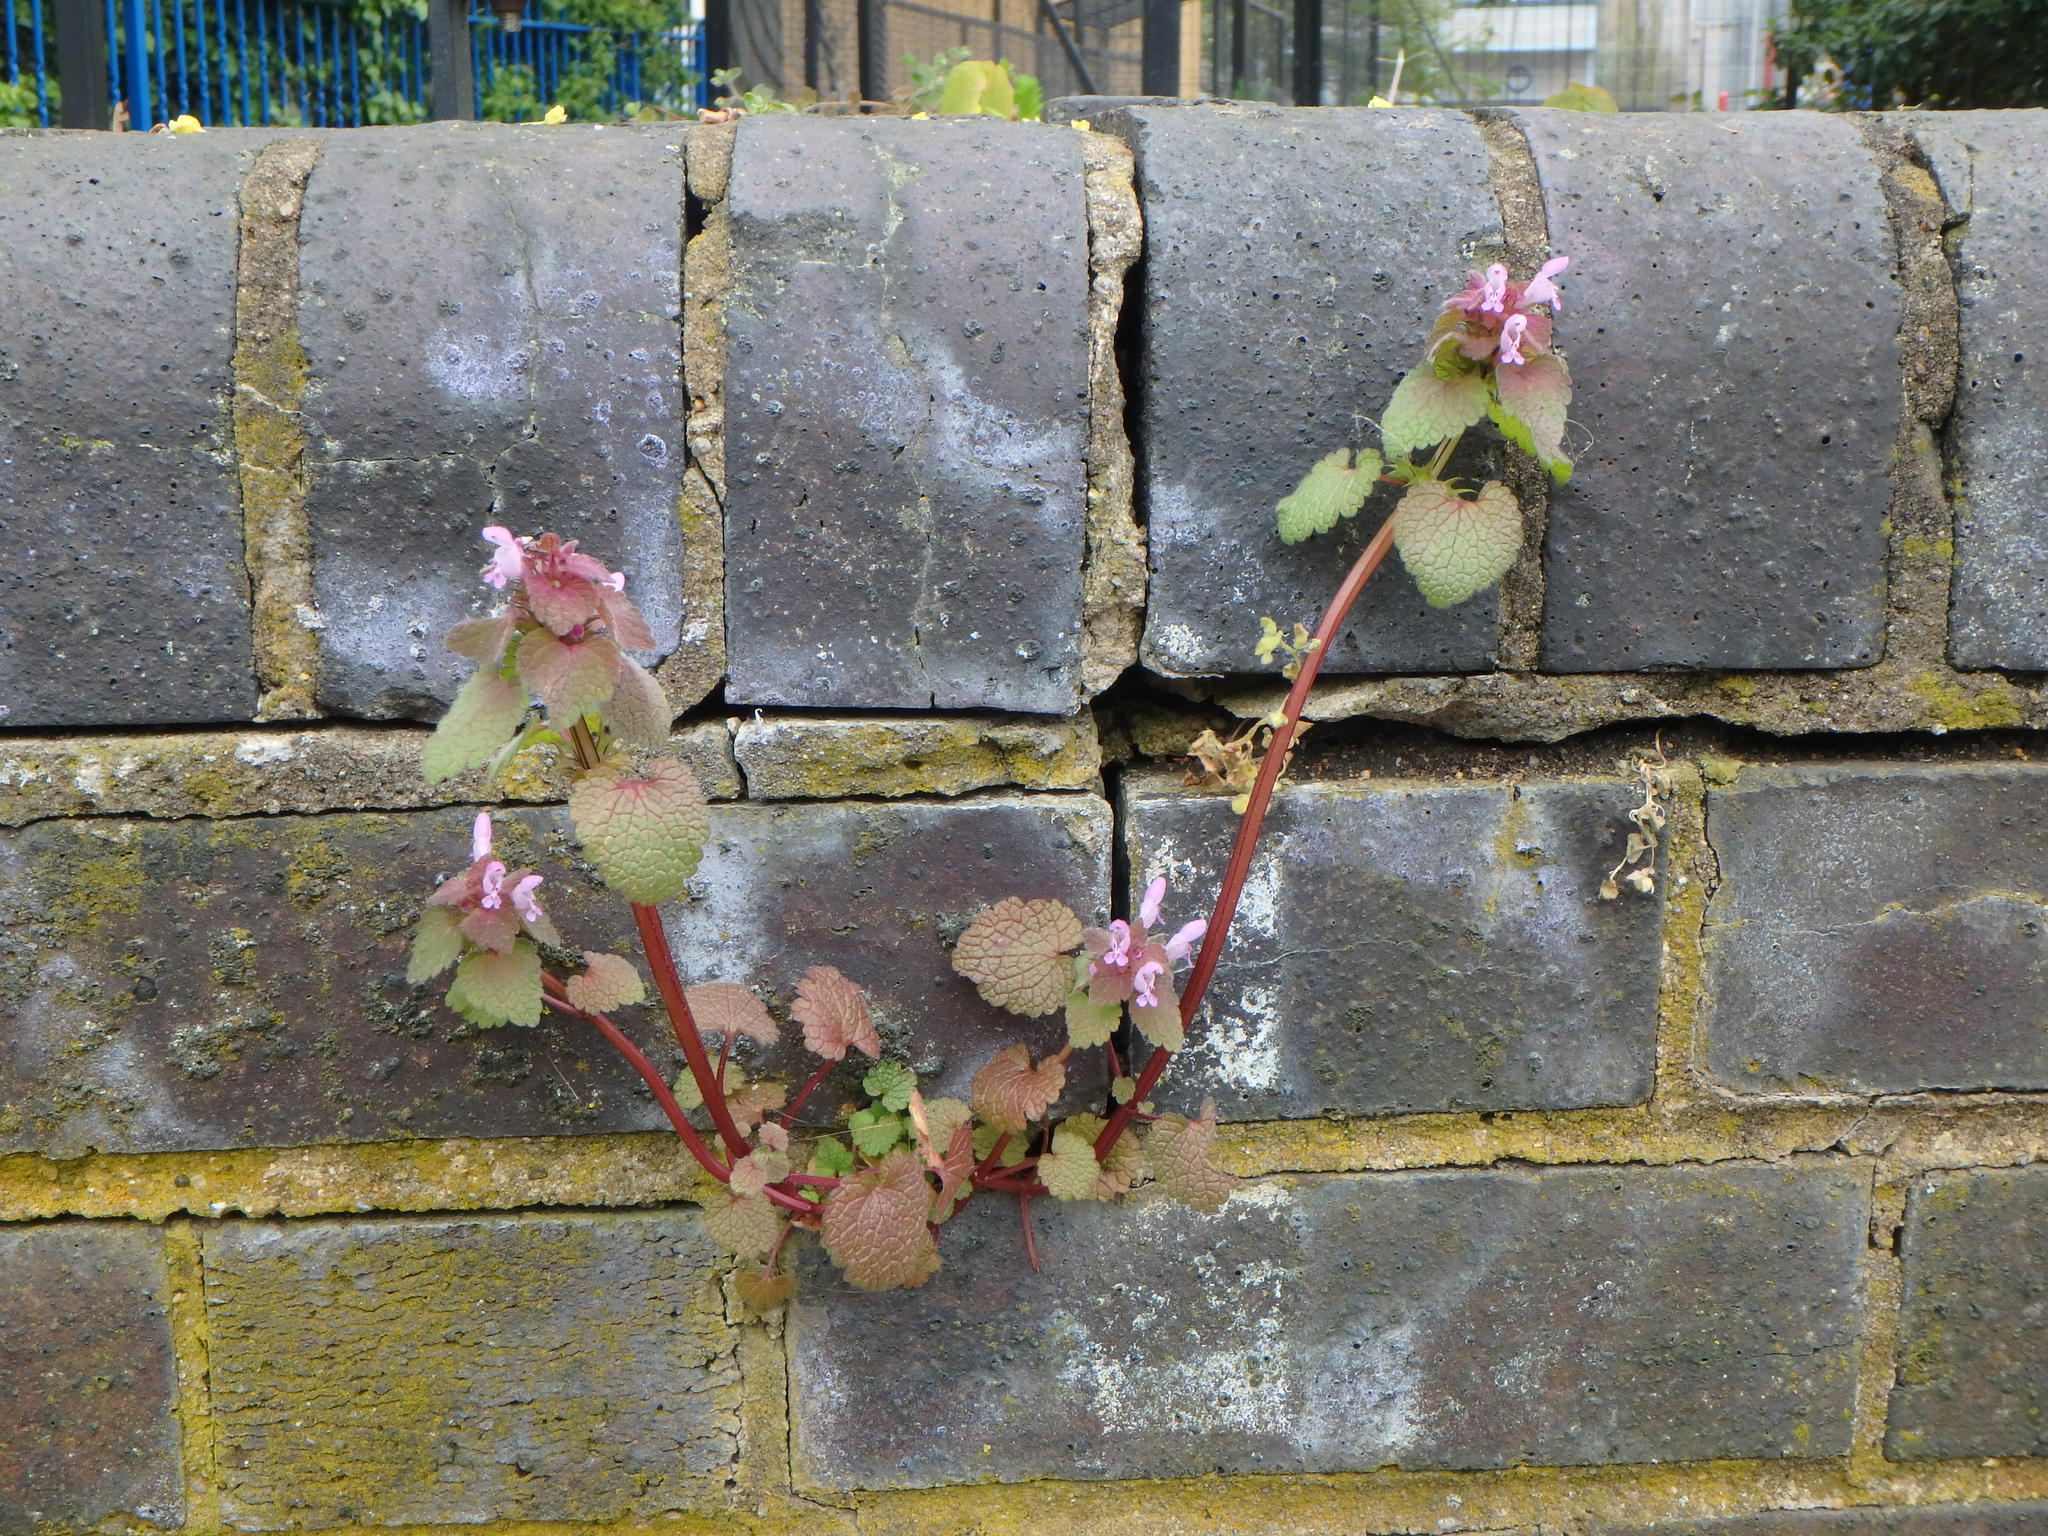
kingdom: Plantae
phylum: Tracheophyta
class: Magnoliopsida
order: Lamiales
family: Lamiaceae
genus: Lamium
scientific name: Lamium purpureum
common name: Red dead-nettle
